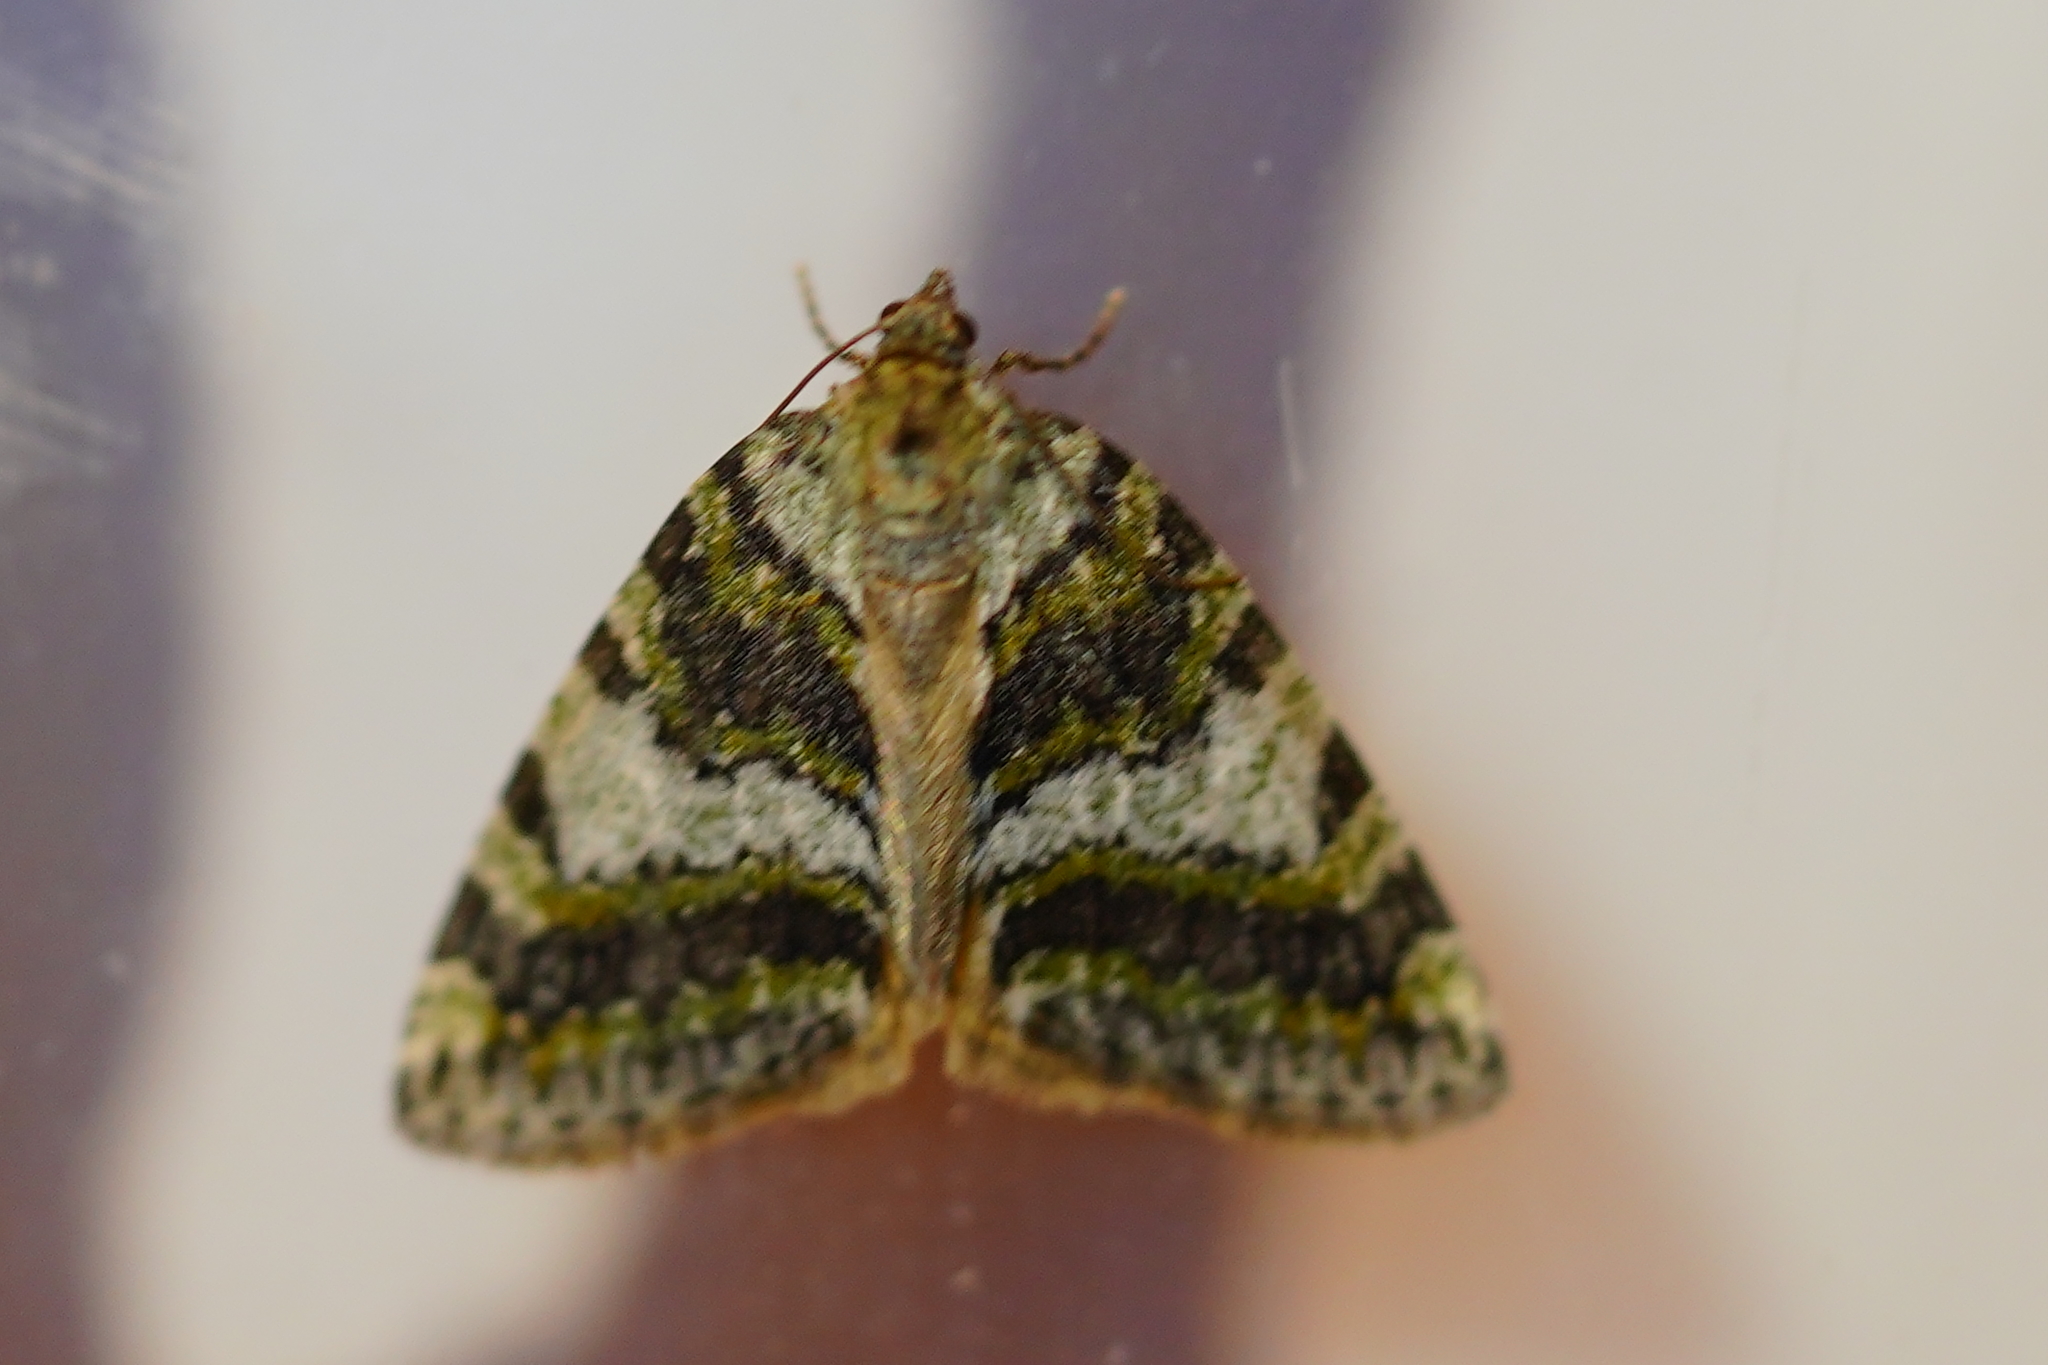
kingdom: Animalia
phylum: Arthropoda
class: Insecta
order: Lepidoptera
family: Geometridae
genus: Hydriomena
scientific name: Hydriomena nubilofasciata
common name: Oak winter highflier moth
